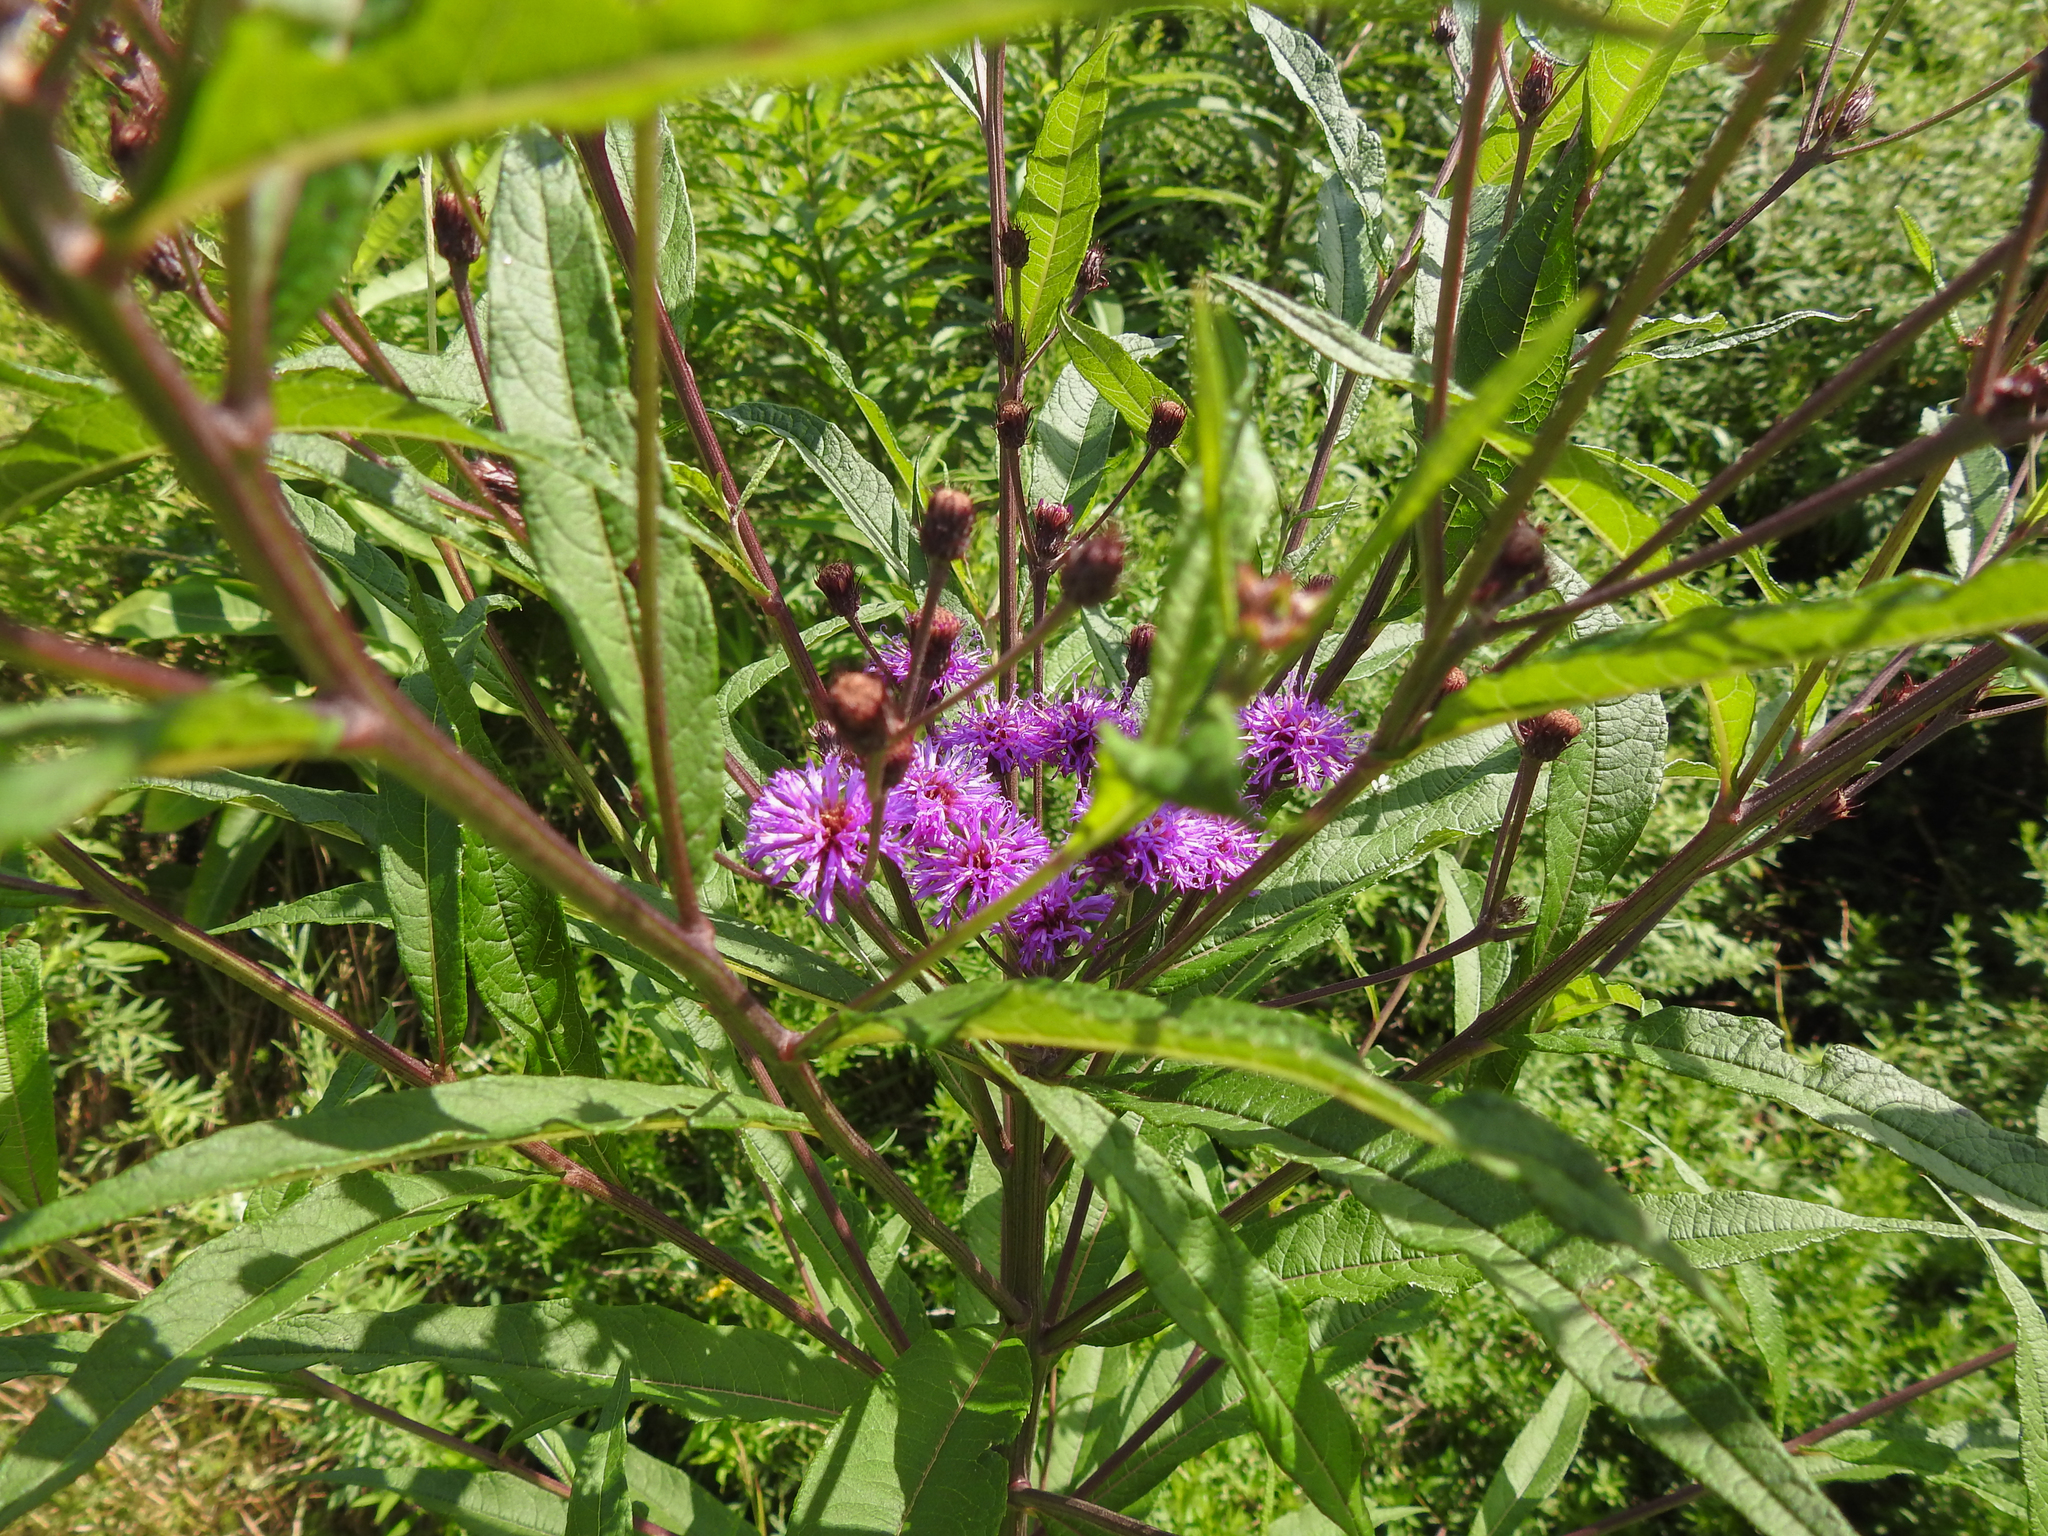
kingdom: Plantae
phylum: Tracheophyta
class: Magnoliopsida
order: Asterales
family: Asteraceae
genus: Vernonia
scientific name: Vernonia noveboracensis
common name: New york ironweed
